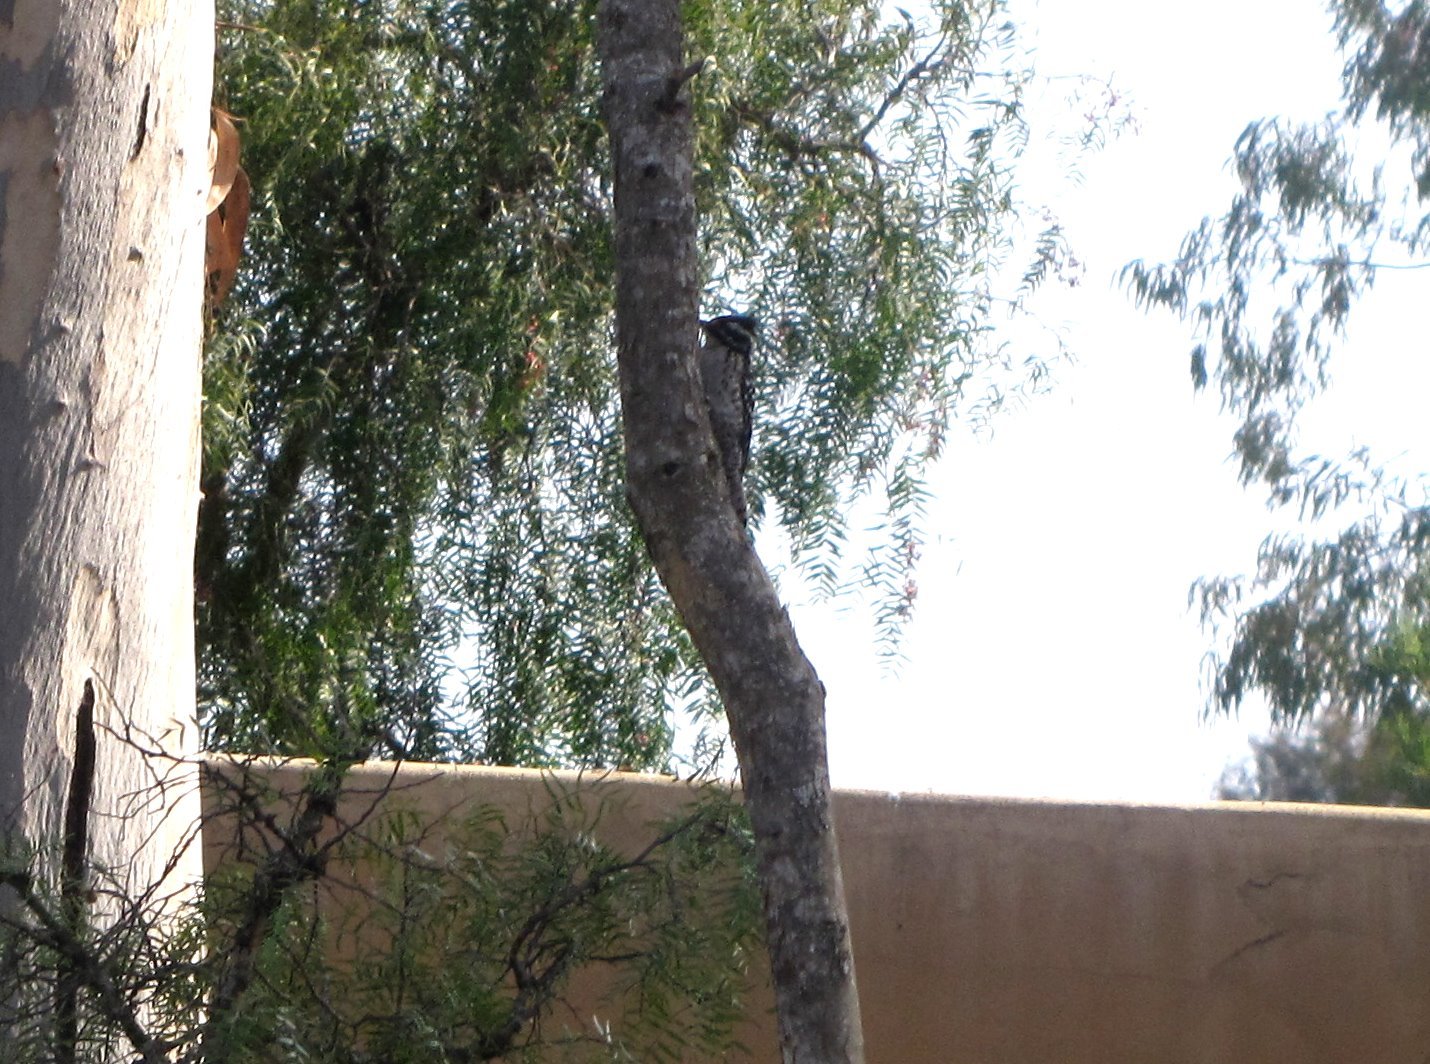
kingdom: Animalia
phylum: Chordata
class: Aves
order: Piciformes
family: Picidae
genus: Dryobates
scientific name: Dryobates nuttallii
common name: Nuttall's woodpecker
